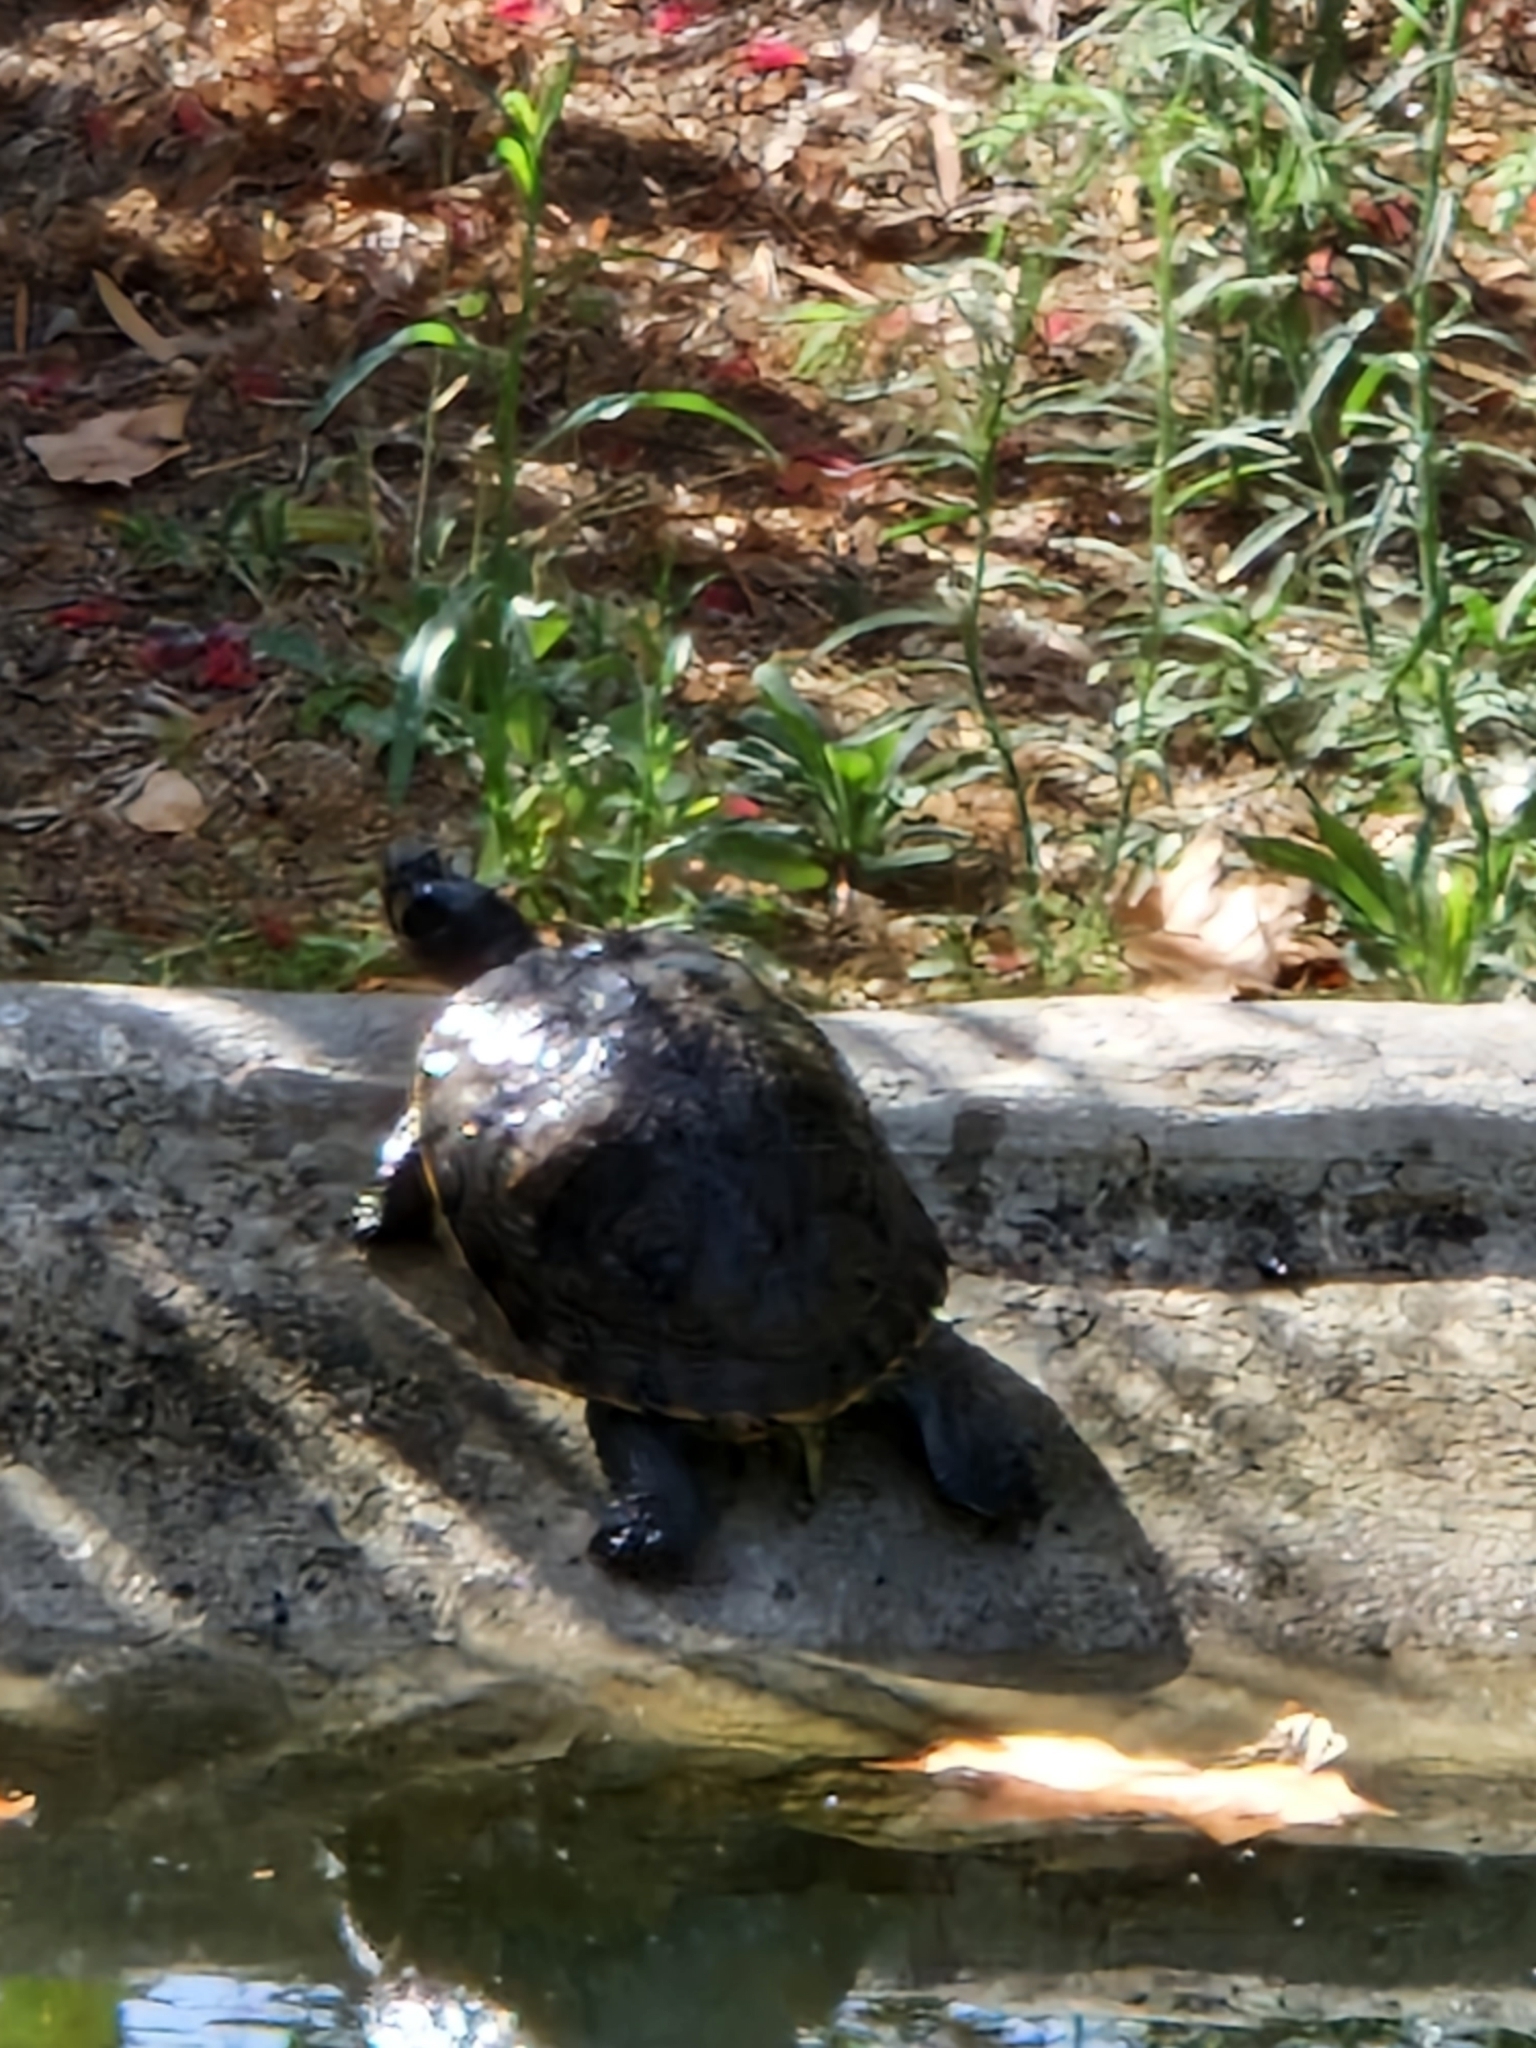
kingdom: Animalia
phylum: Chordata
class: Testudines
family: Emydidae
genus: Graptemys
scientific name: Graptemys pseudogeographica
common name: False map turtle
